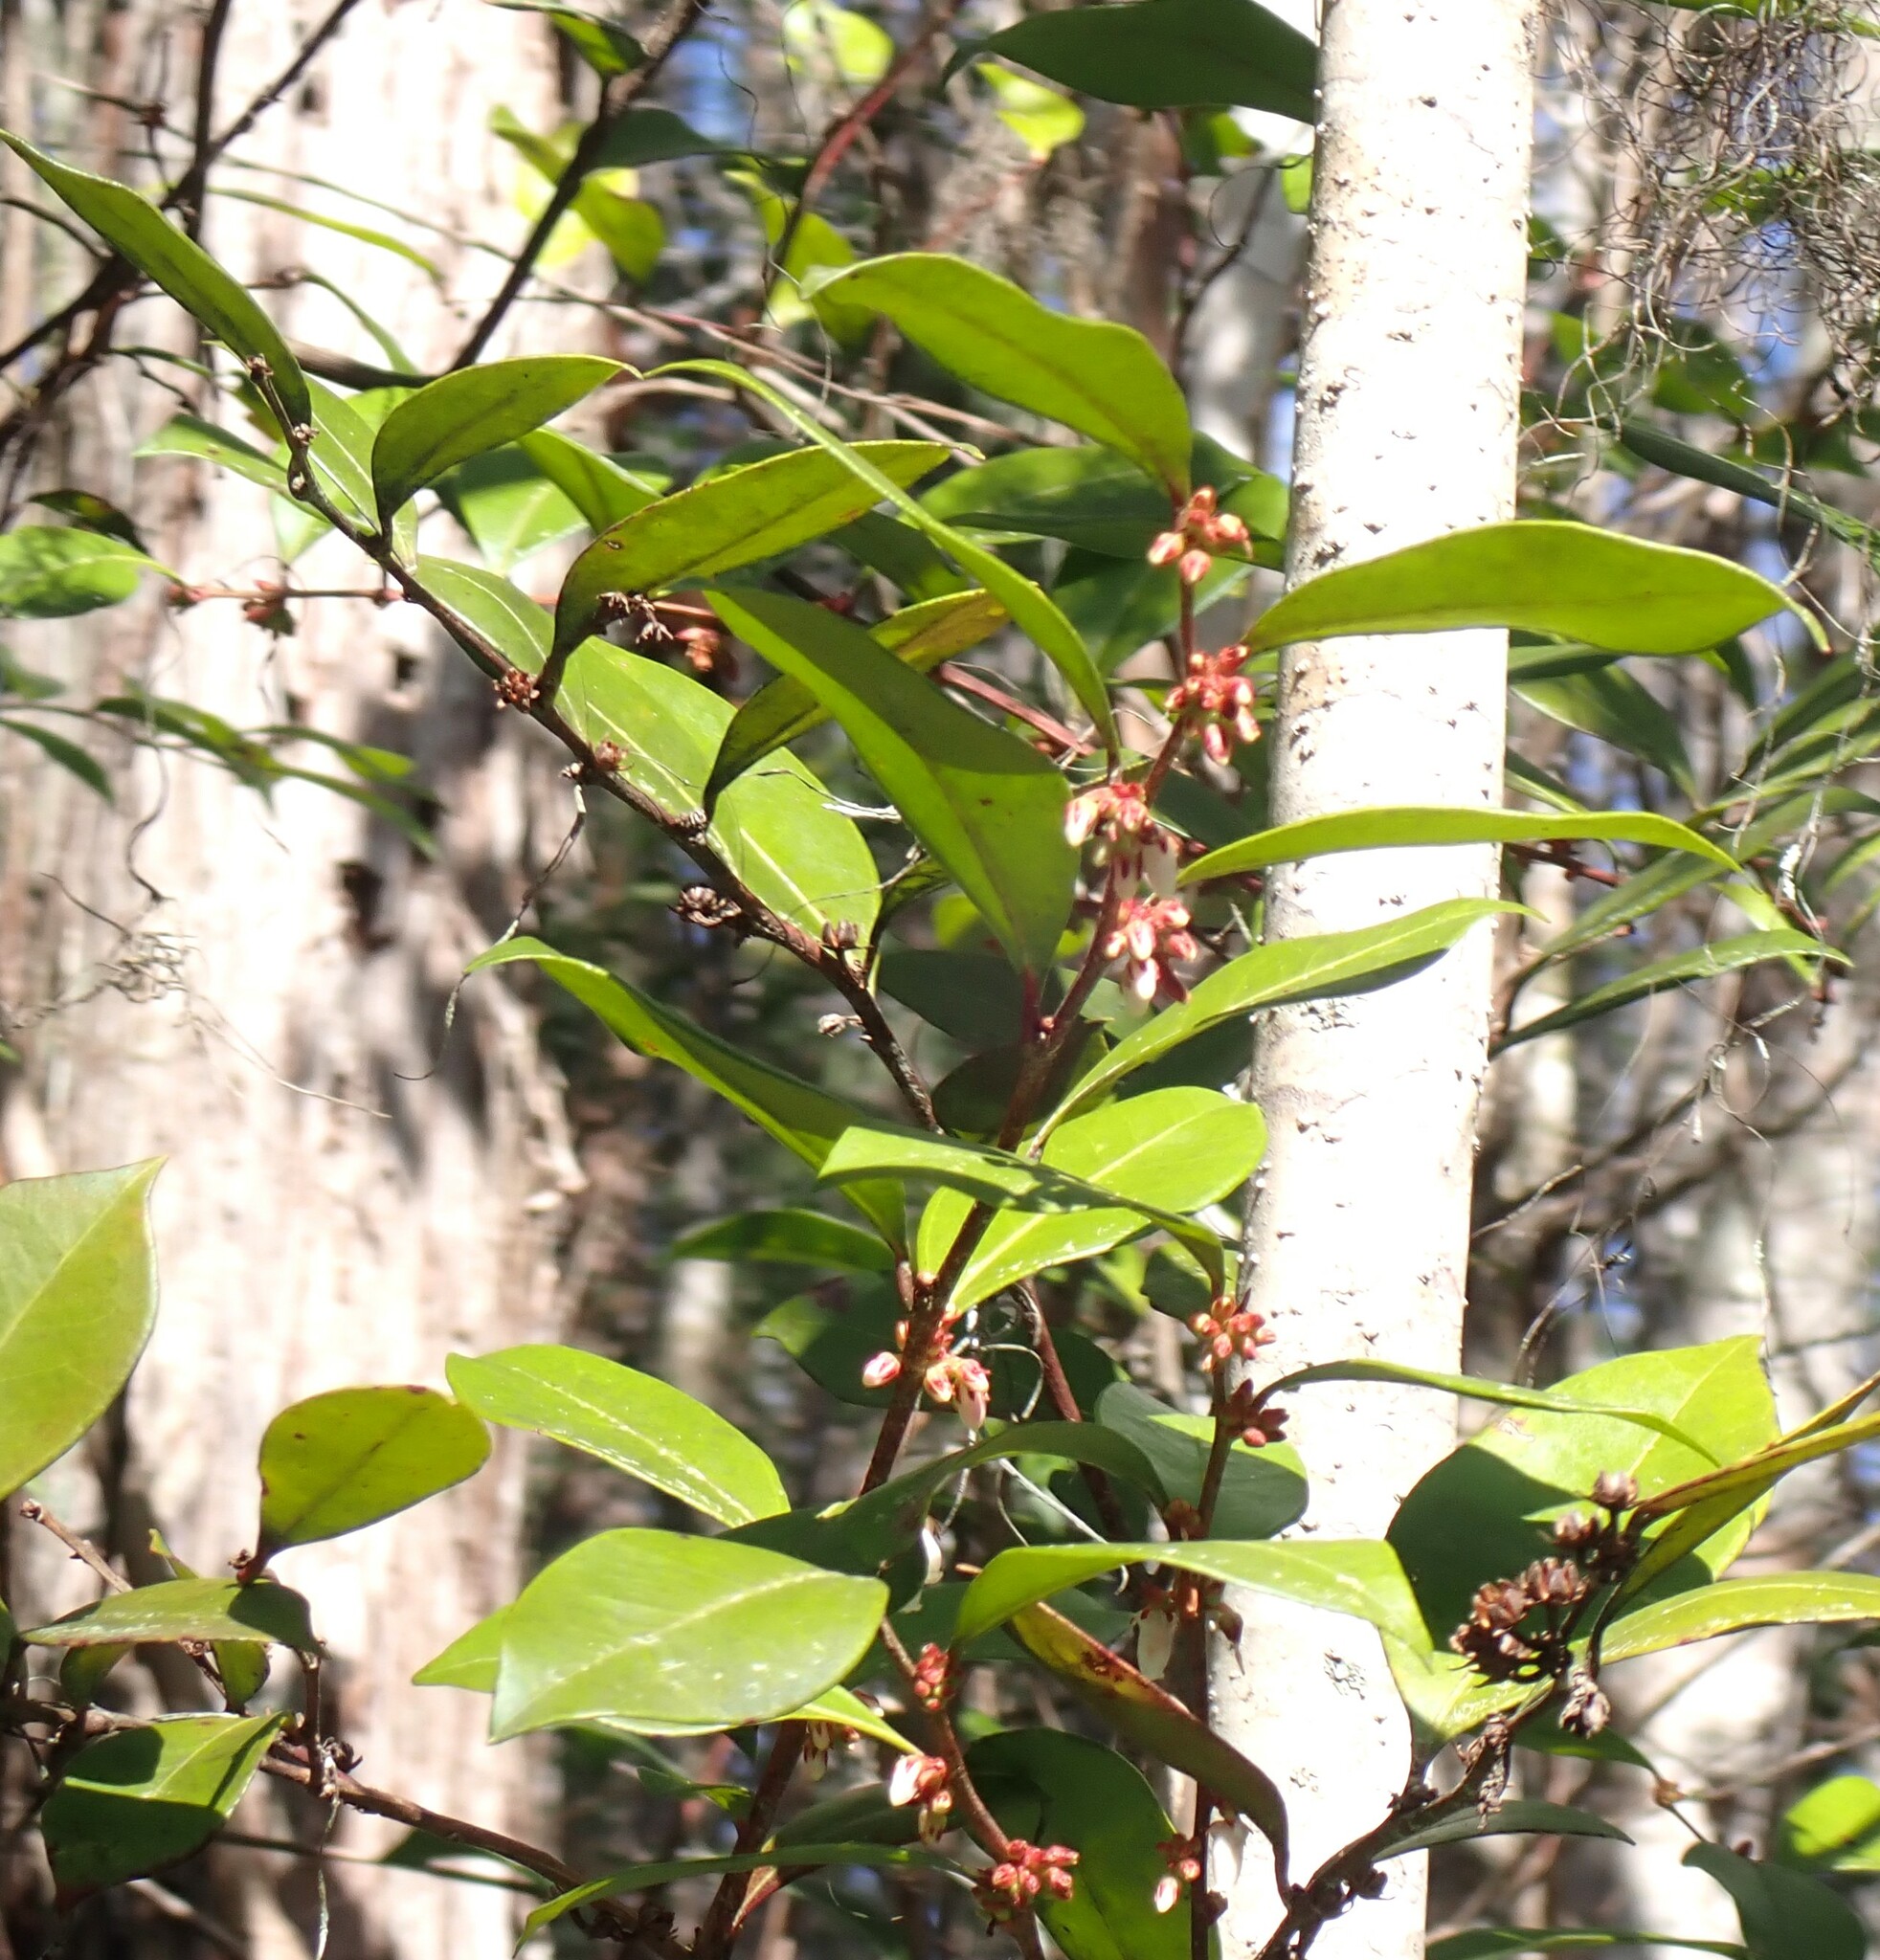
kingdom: Plantae
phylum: Tracheophyta
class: Magnoliopsida
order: Ericales
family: Ericaceae
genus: Lyonia
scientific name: Lyonia lucida
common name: Fetterbush
